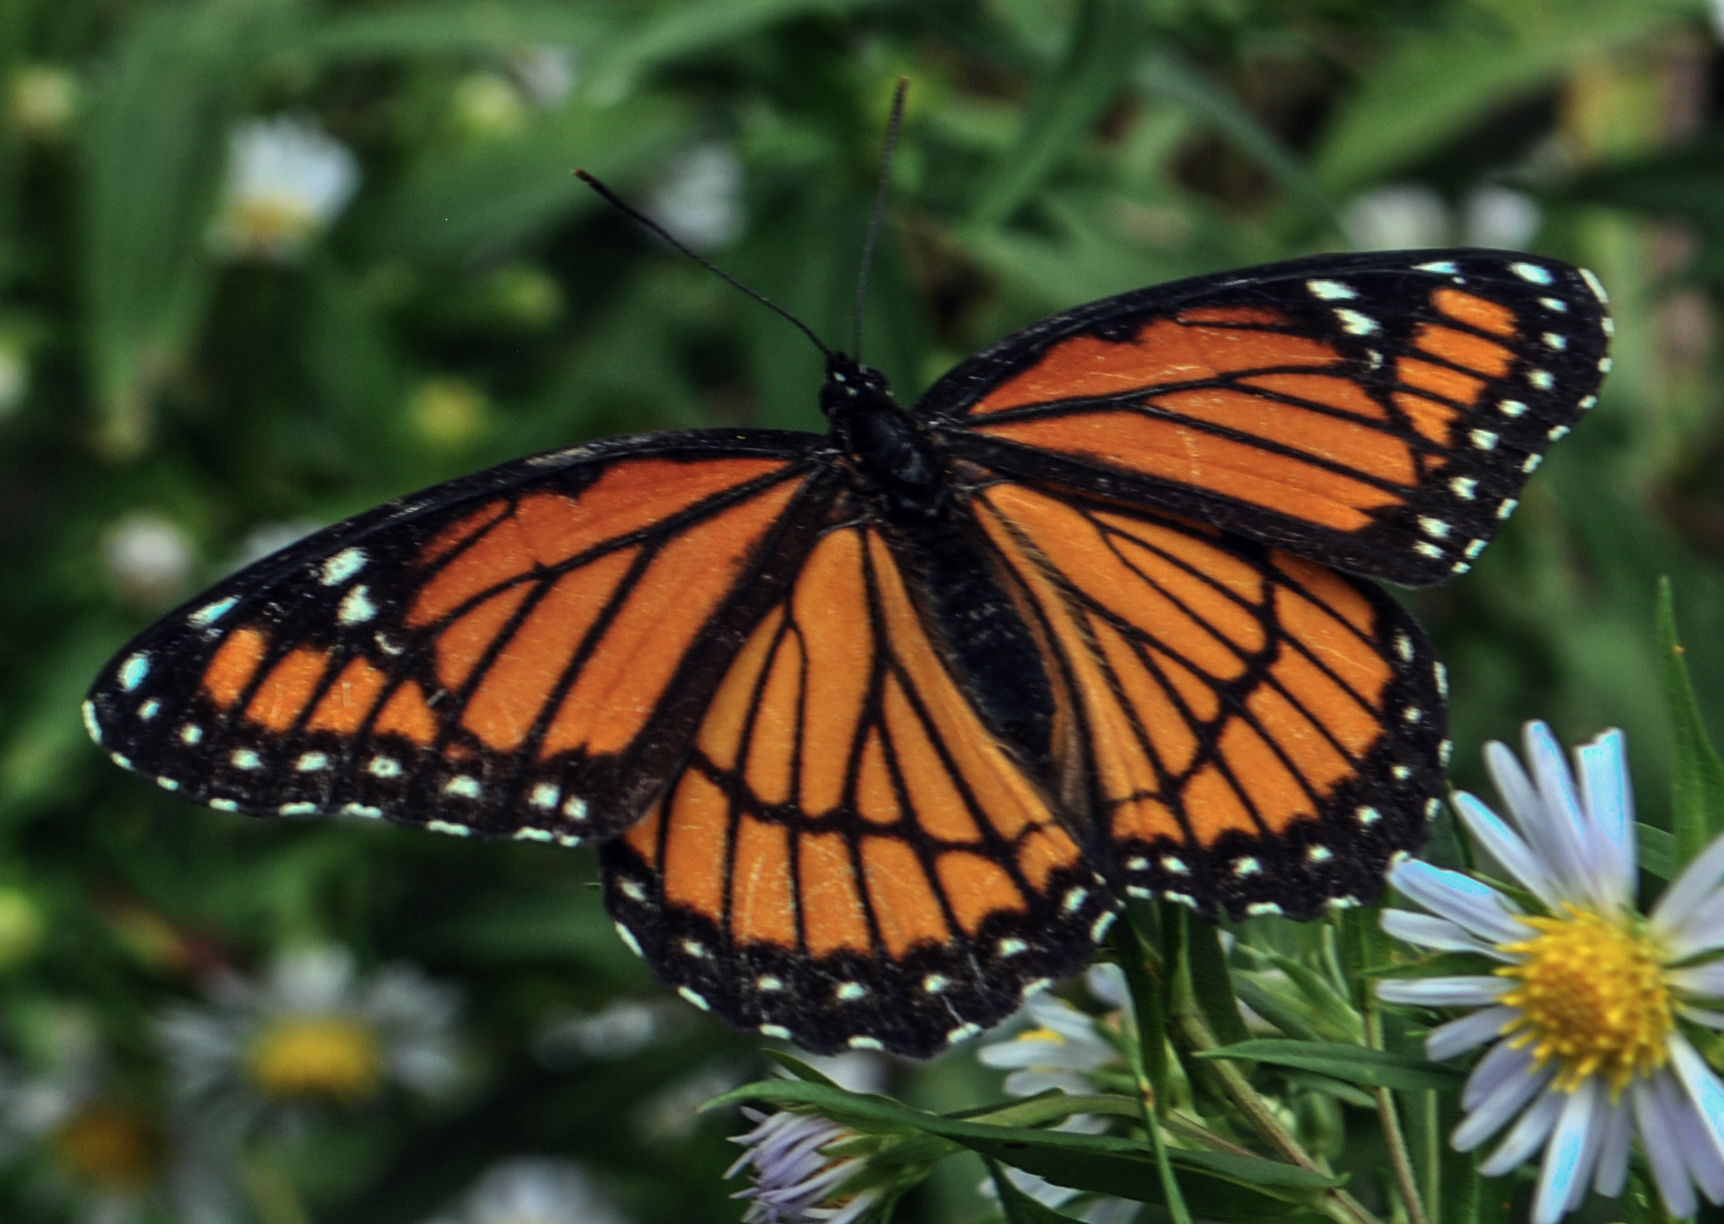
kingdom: Animalia
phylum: Arthropoda
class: Insecta
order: Lepidoptera
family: Nymphalidae
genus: Limenitis
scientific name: Limenitis archippus
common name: Viceroy
